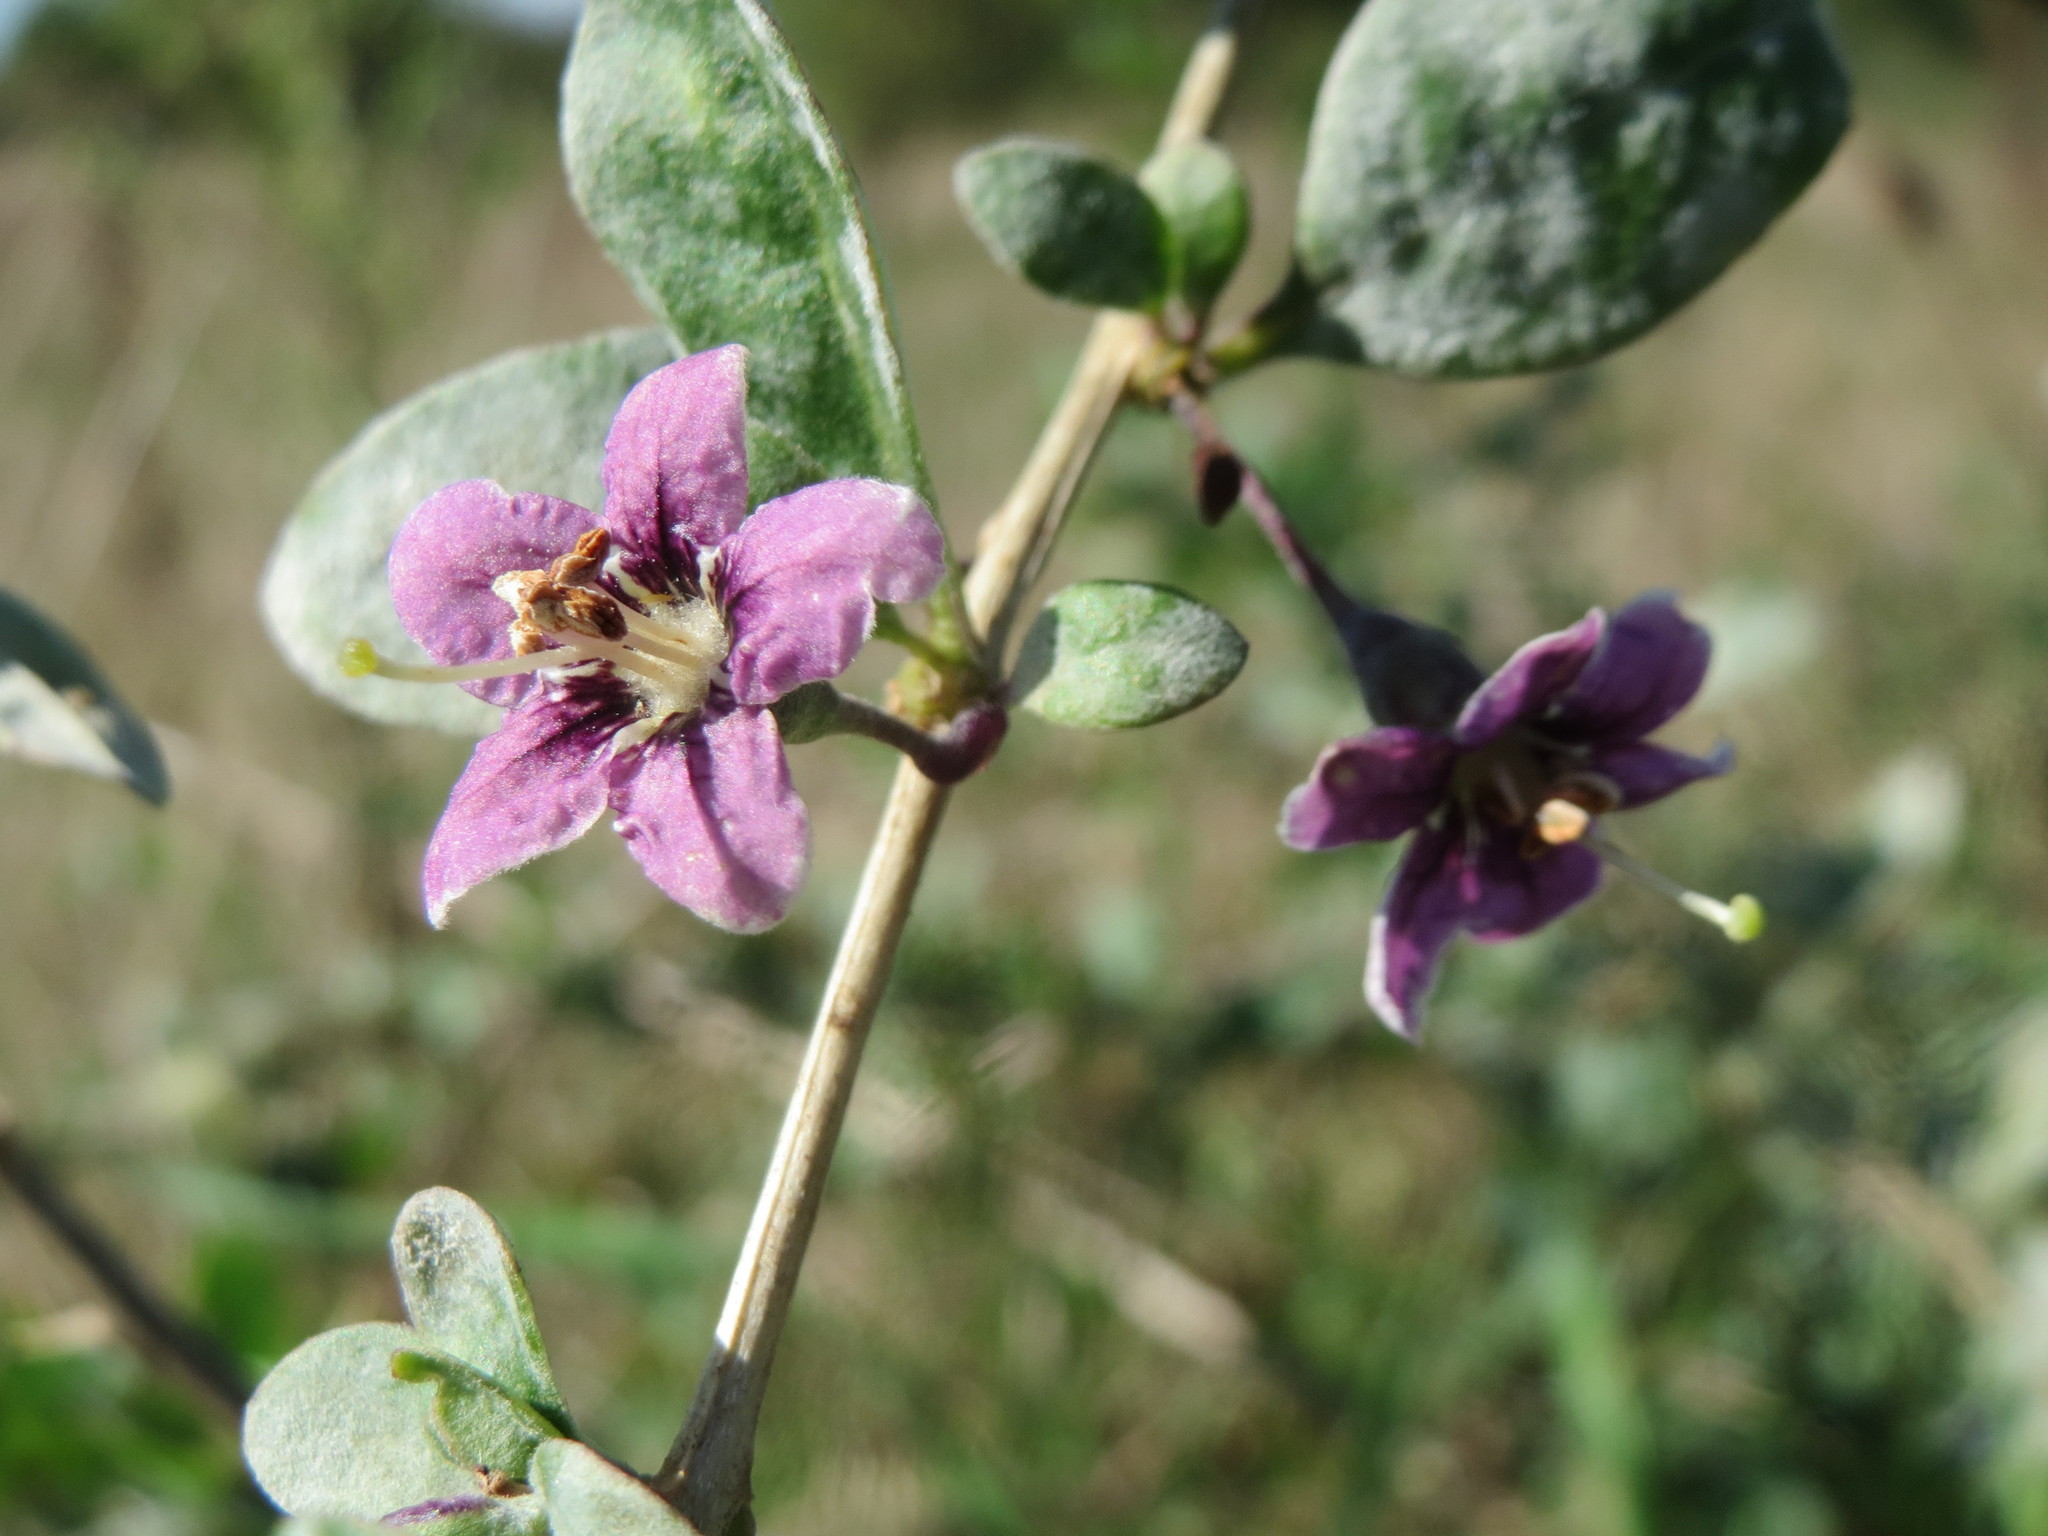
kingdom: Plantae
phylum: Tracheophyta
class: Magnoliopsida
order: Solanales
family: Solanaceae
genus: Lycium
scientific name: Lycium barbarum
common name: Duke of argyll's teaplant
